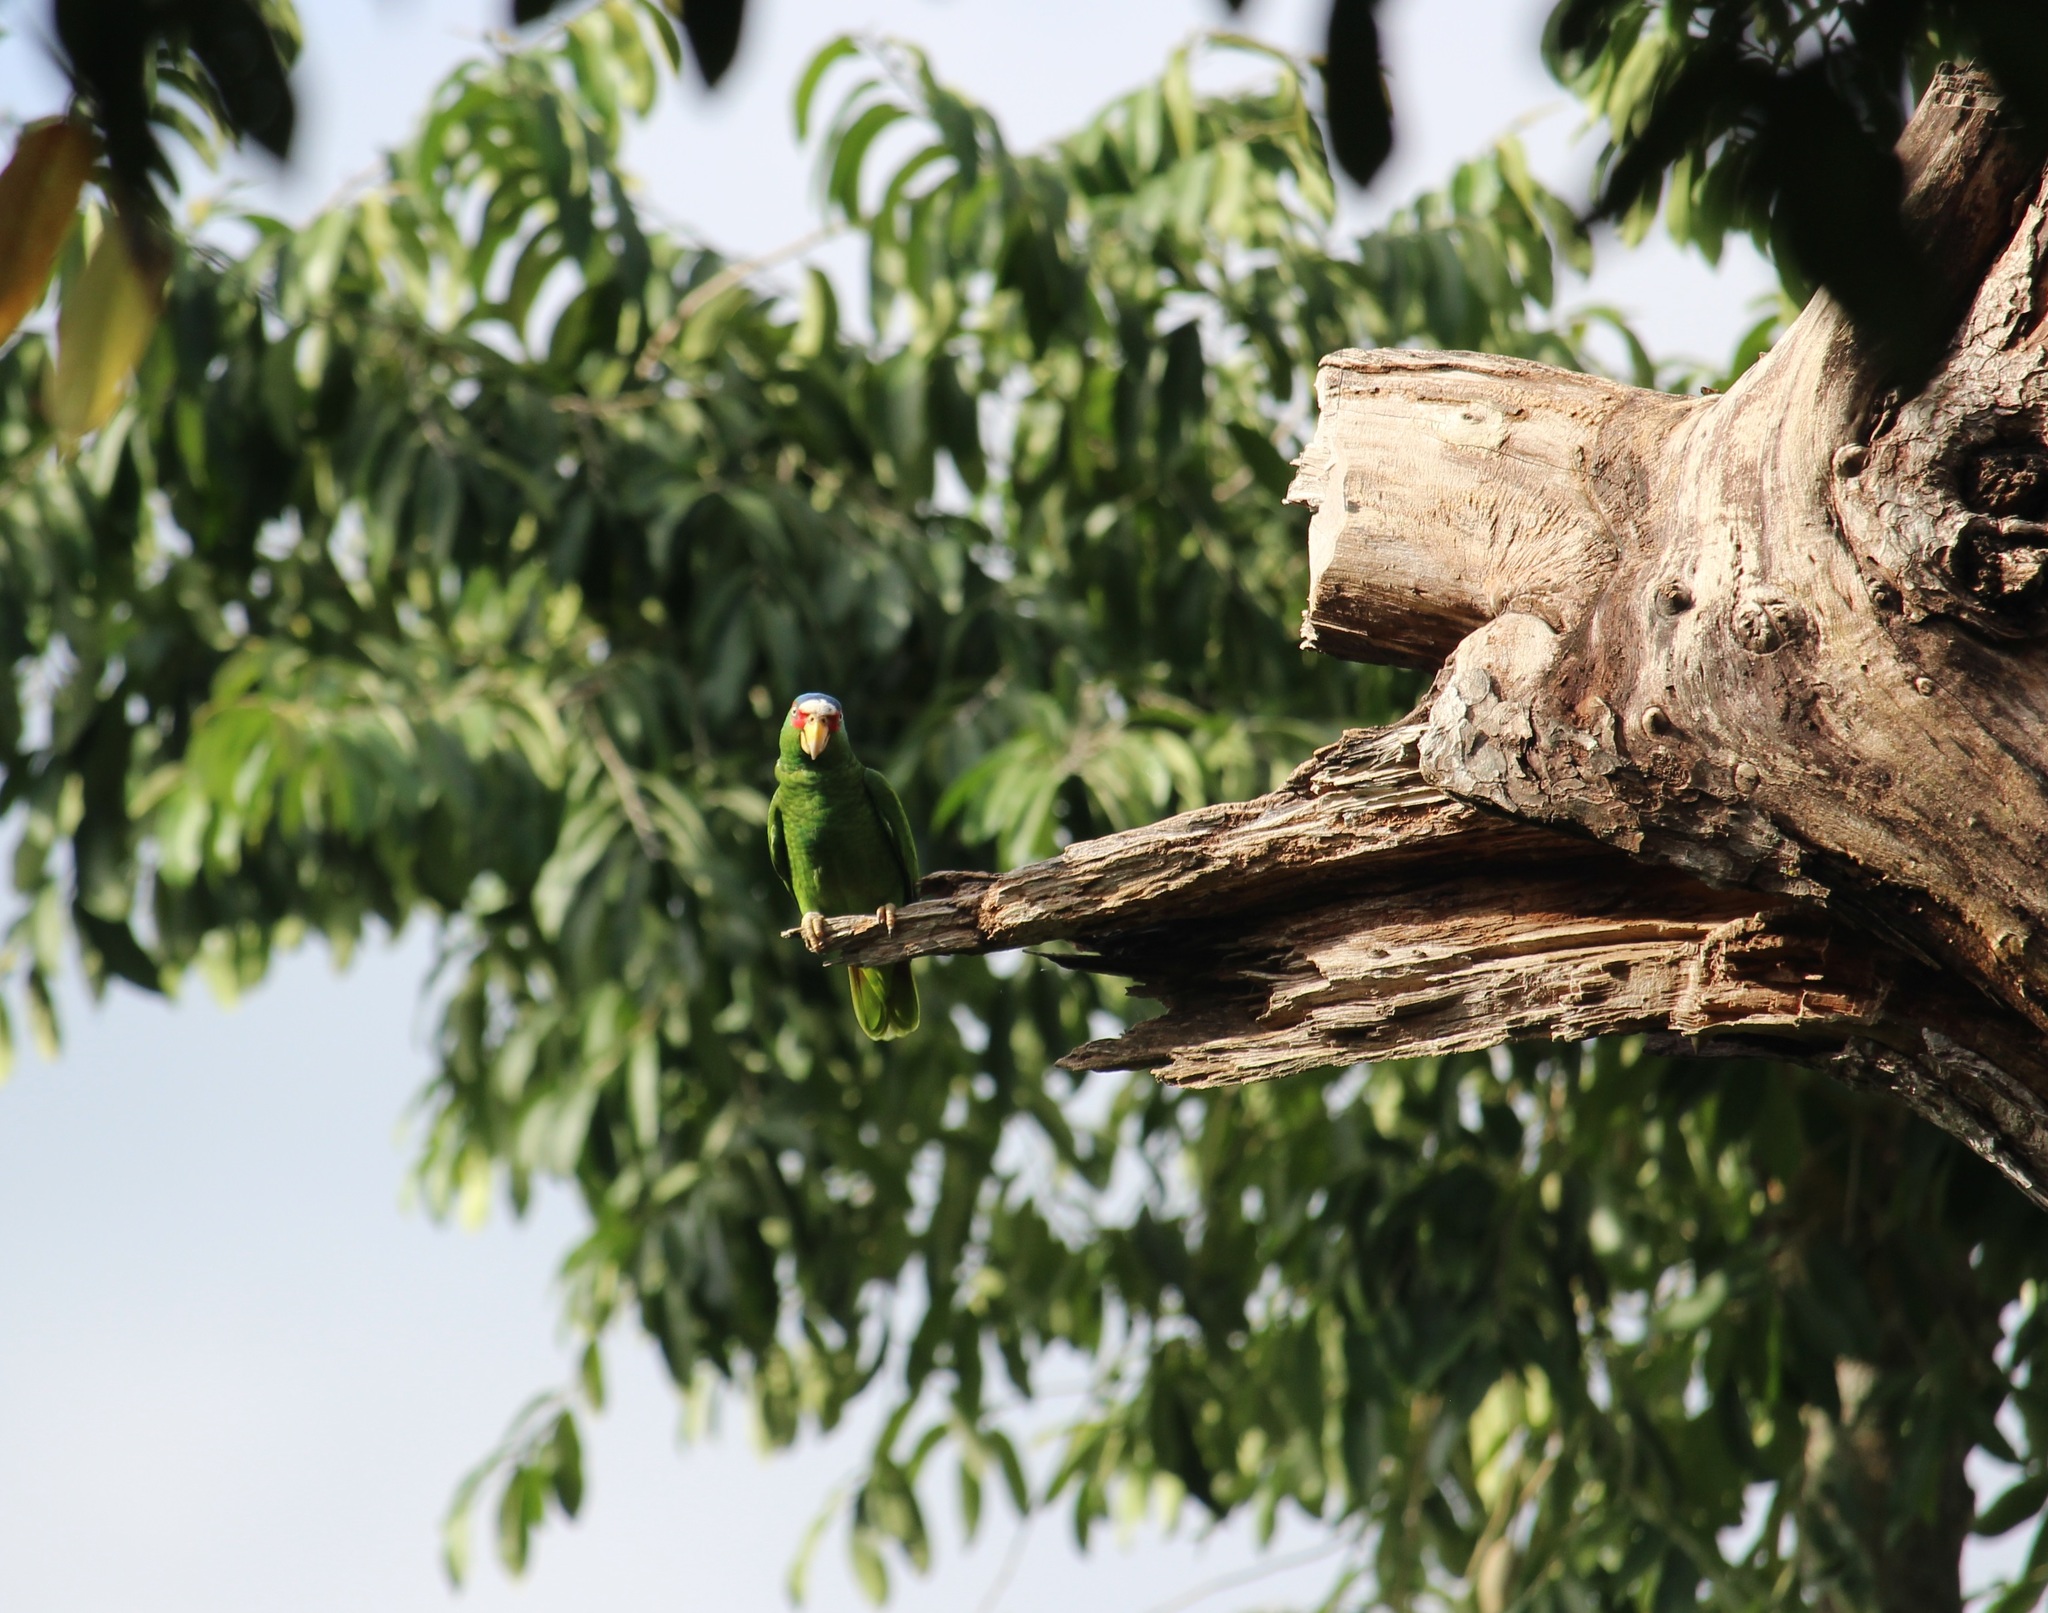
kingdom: Animalia
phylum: Chordata
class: Aves
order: Psittaciformes
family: Psittacidae
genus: Amazona
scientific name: Amazona albifrons
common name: White-fronted amazon
